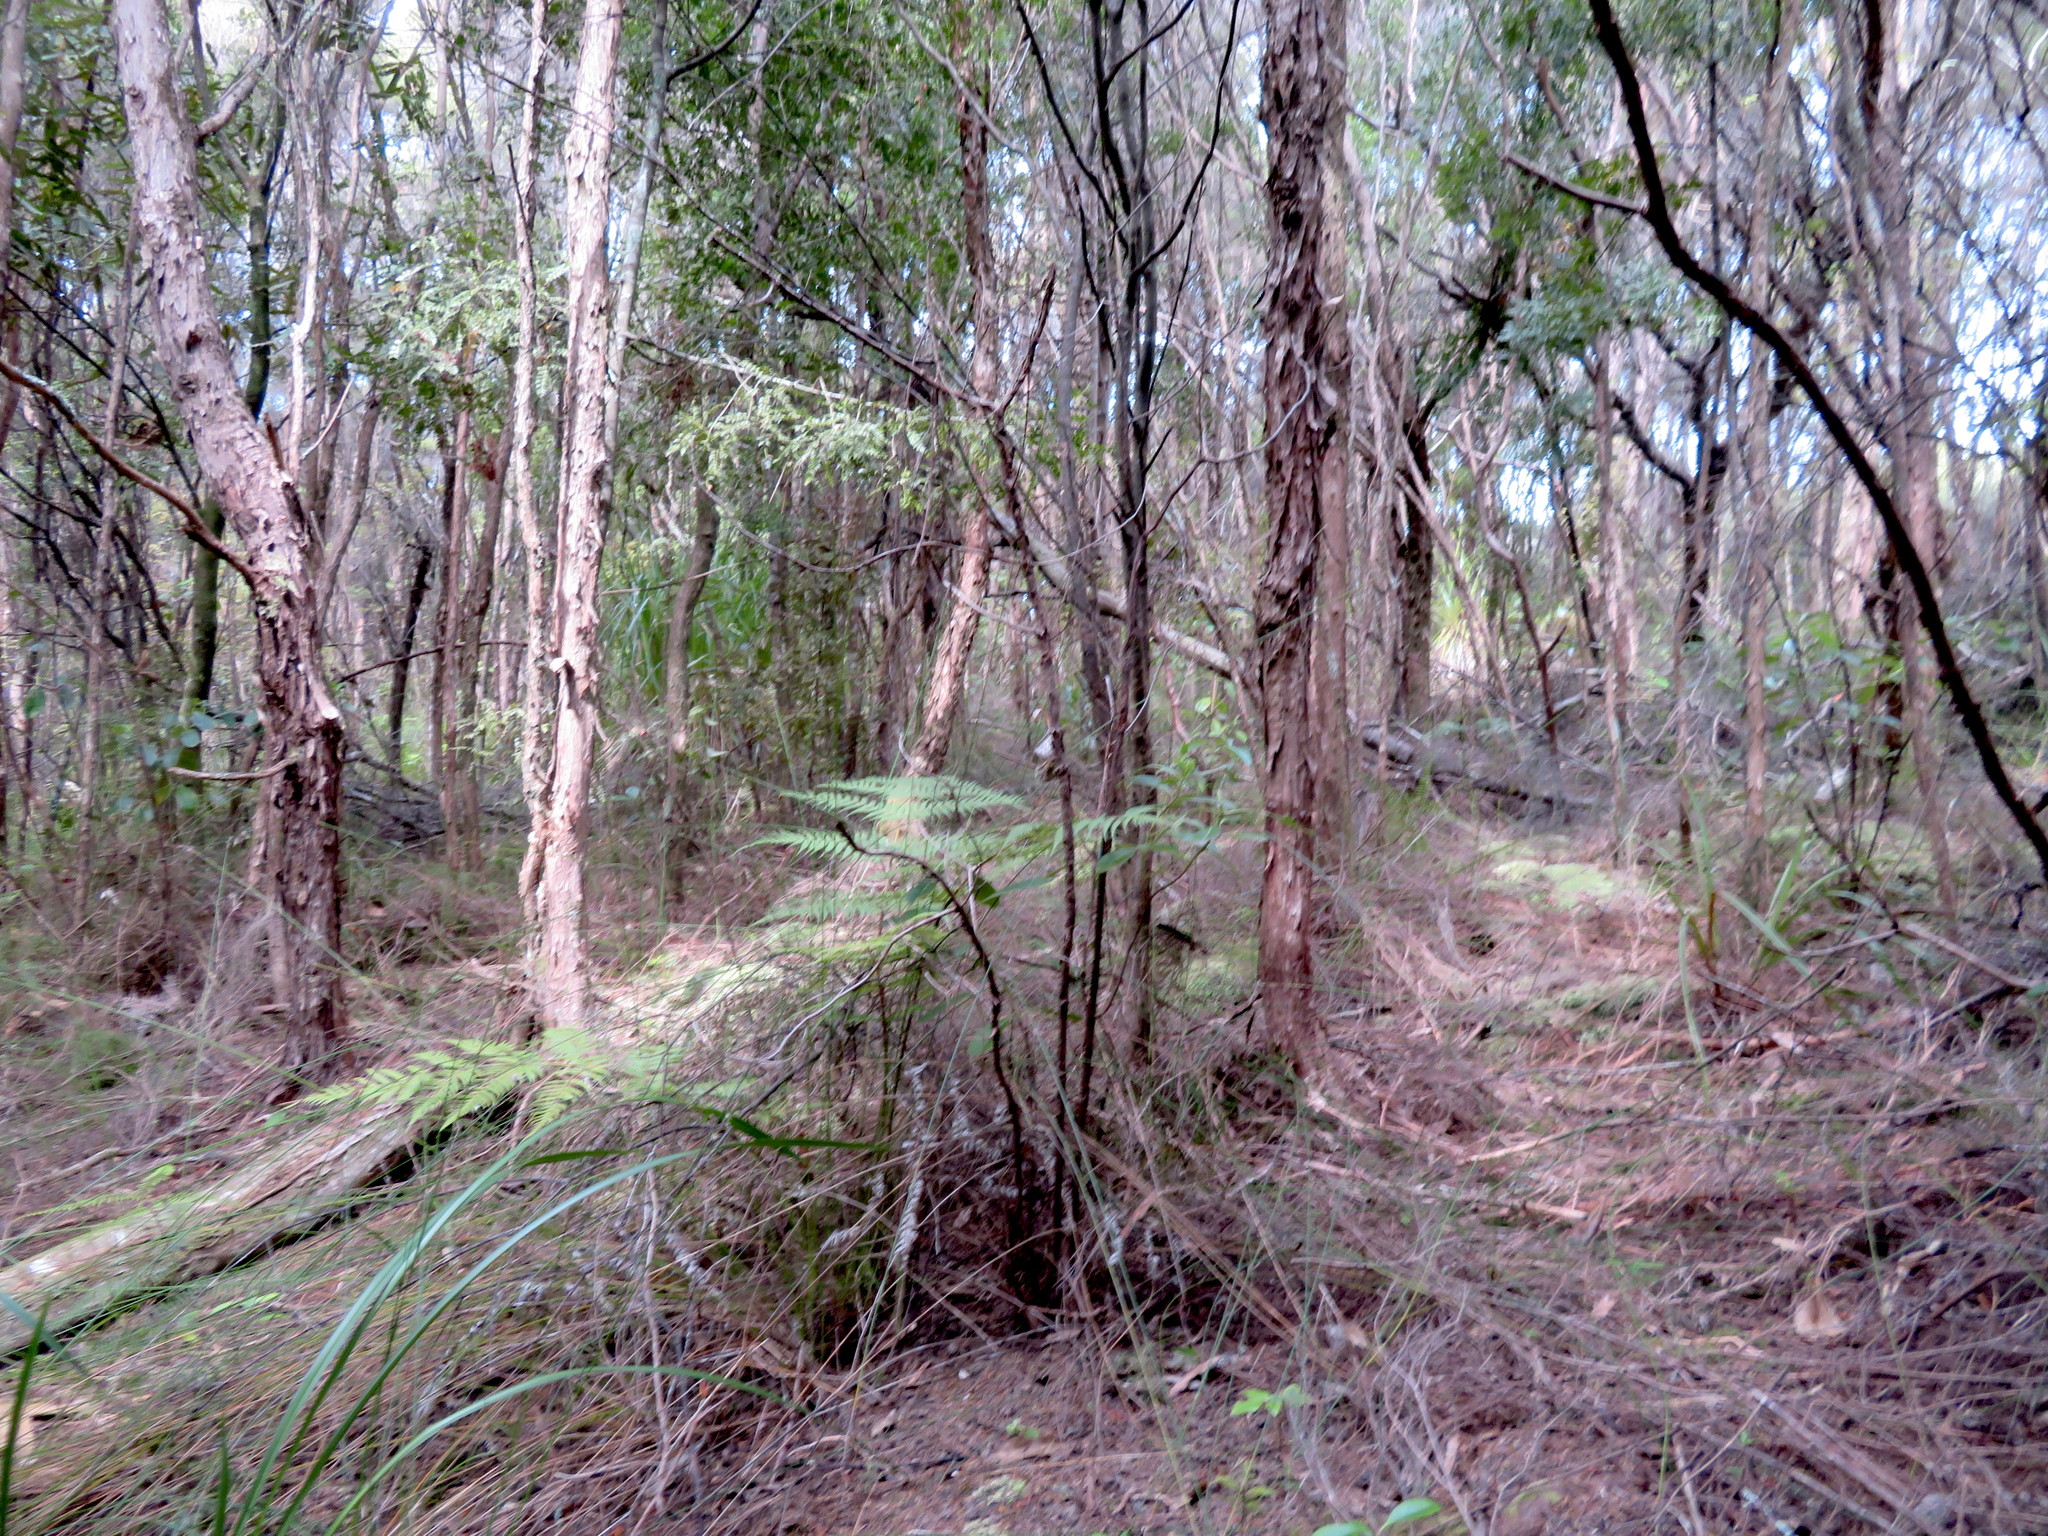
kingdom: Plantae
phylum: Tracheophyta
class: Pinopsida
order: Pinales
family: Phyllocladaceae
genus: Phyllocladus
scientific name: Phyllocladus trichomanoides
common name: Celery pine
